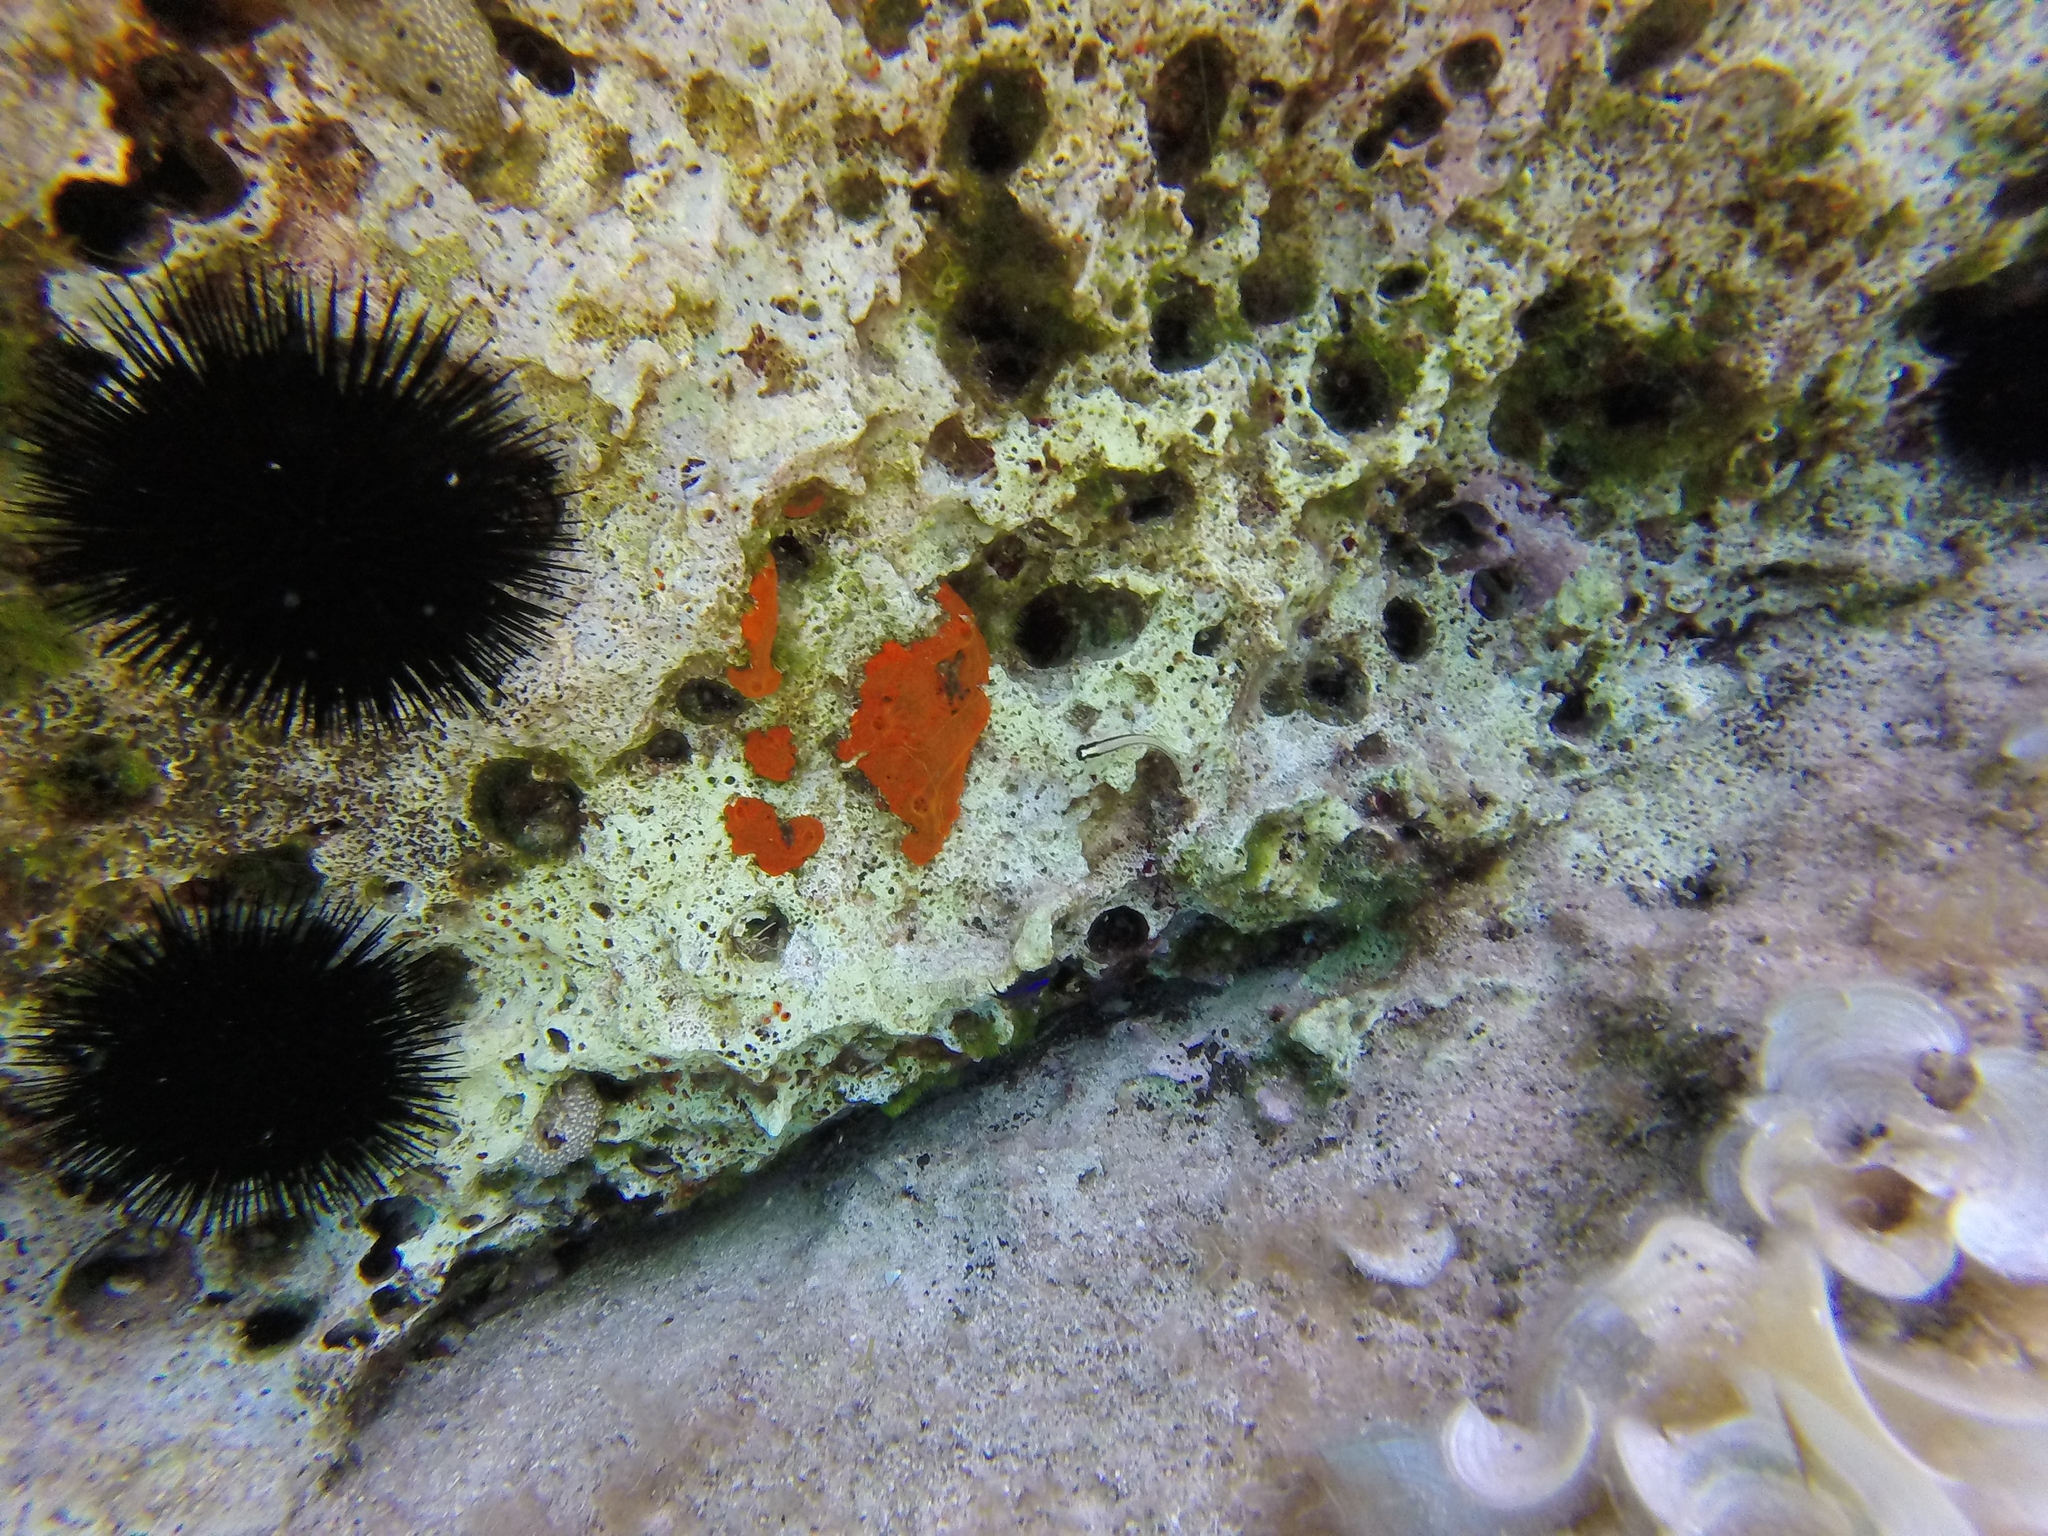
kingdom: Animalia
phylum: Chordata
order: Perciformes
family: Blenniidae
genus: Parablennius
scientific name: Parablennius rouxi
